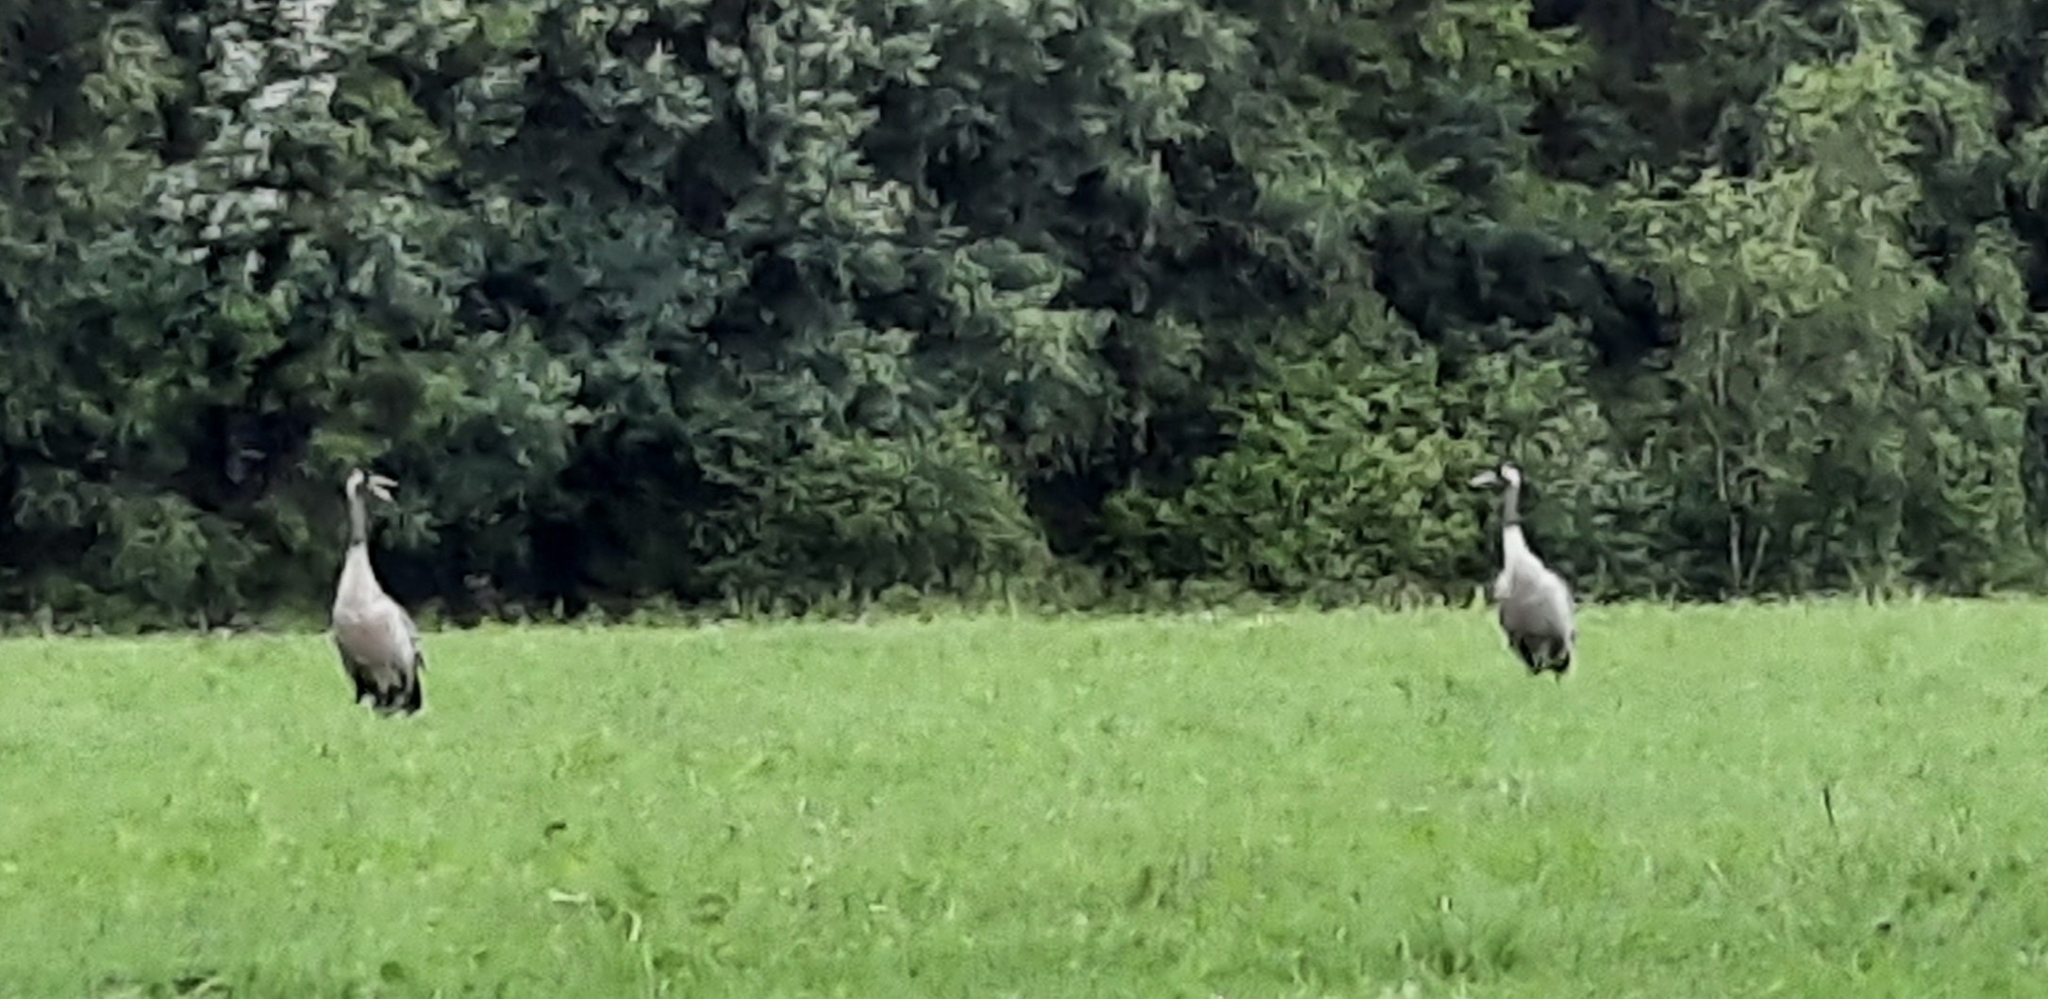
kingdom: Animalia
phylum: Chordata
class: Aves
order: Gruiformes
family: Gruidae
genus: Grus
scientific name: Grus grus
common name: Common crane
